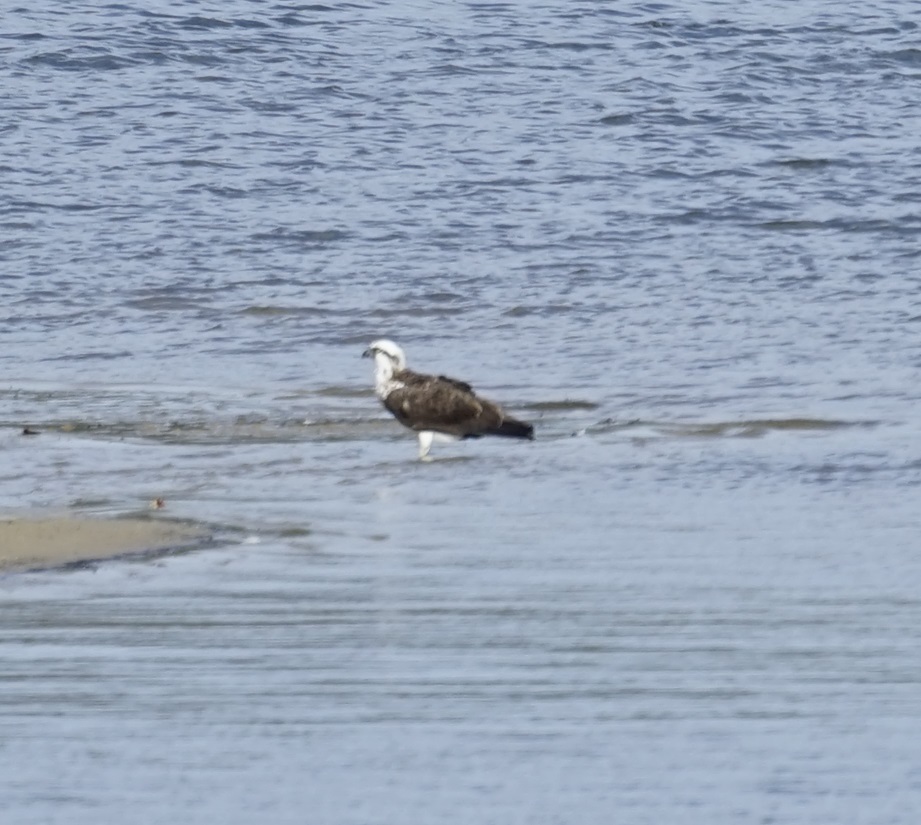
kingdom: Animalia
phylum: Chordata
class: Aves
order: Accipitriformes
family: Pandionidae
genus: Pandion
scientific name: Pandion cristatus
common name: Eastern osprey
